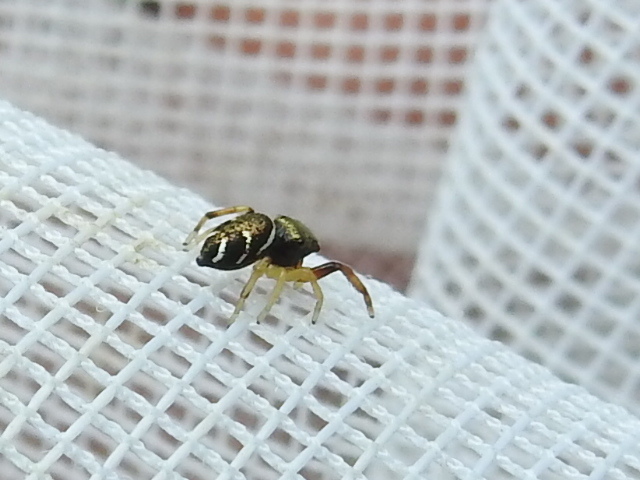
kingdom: Animalia
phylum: Arthropoda
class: Arachnida
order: Araneae
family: Salticidae
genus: Zygoballus
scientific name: Zygoballus rufipes
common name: Jumping spiders
